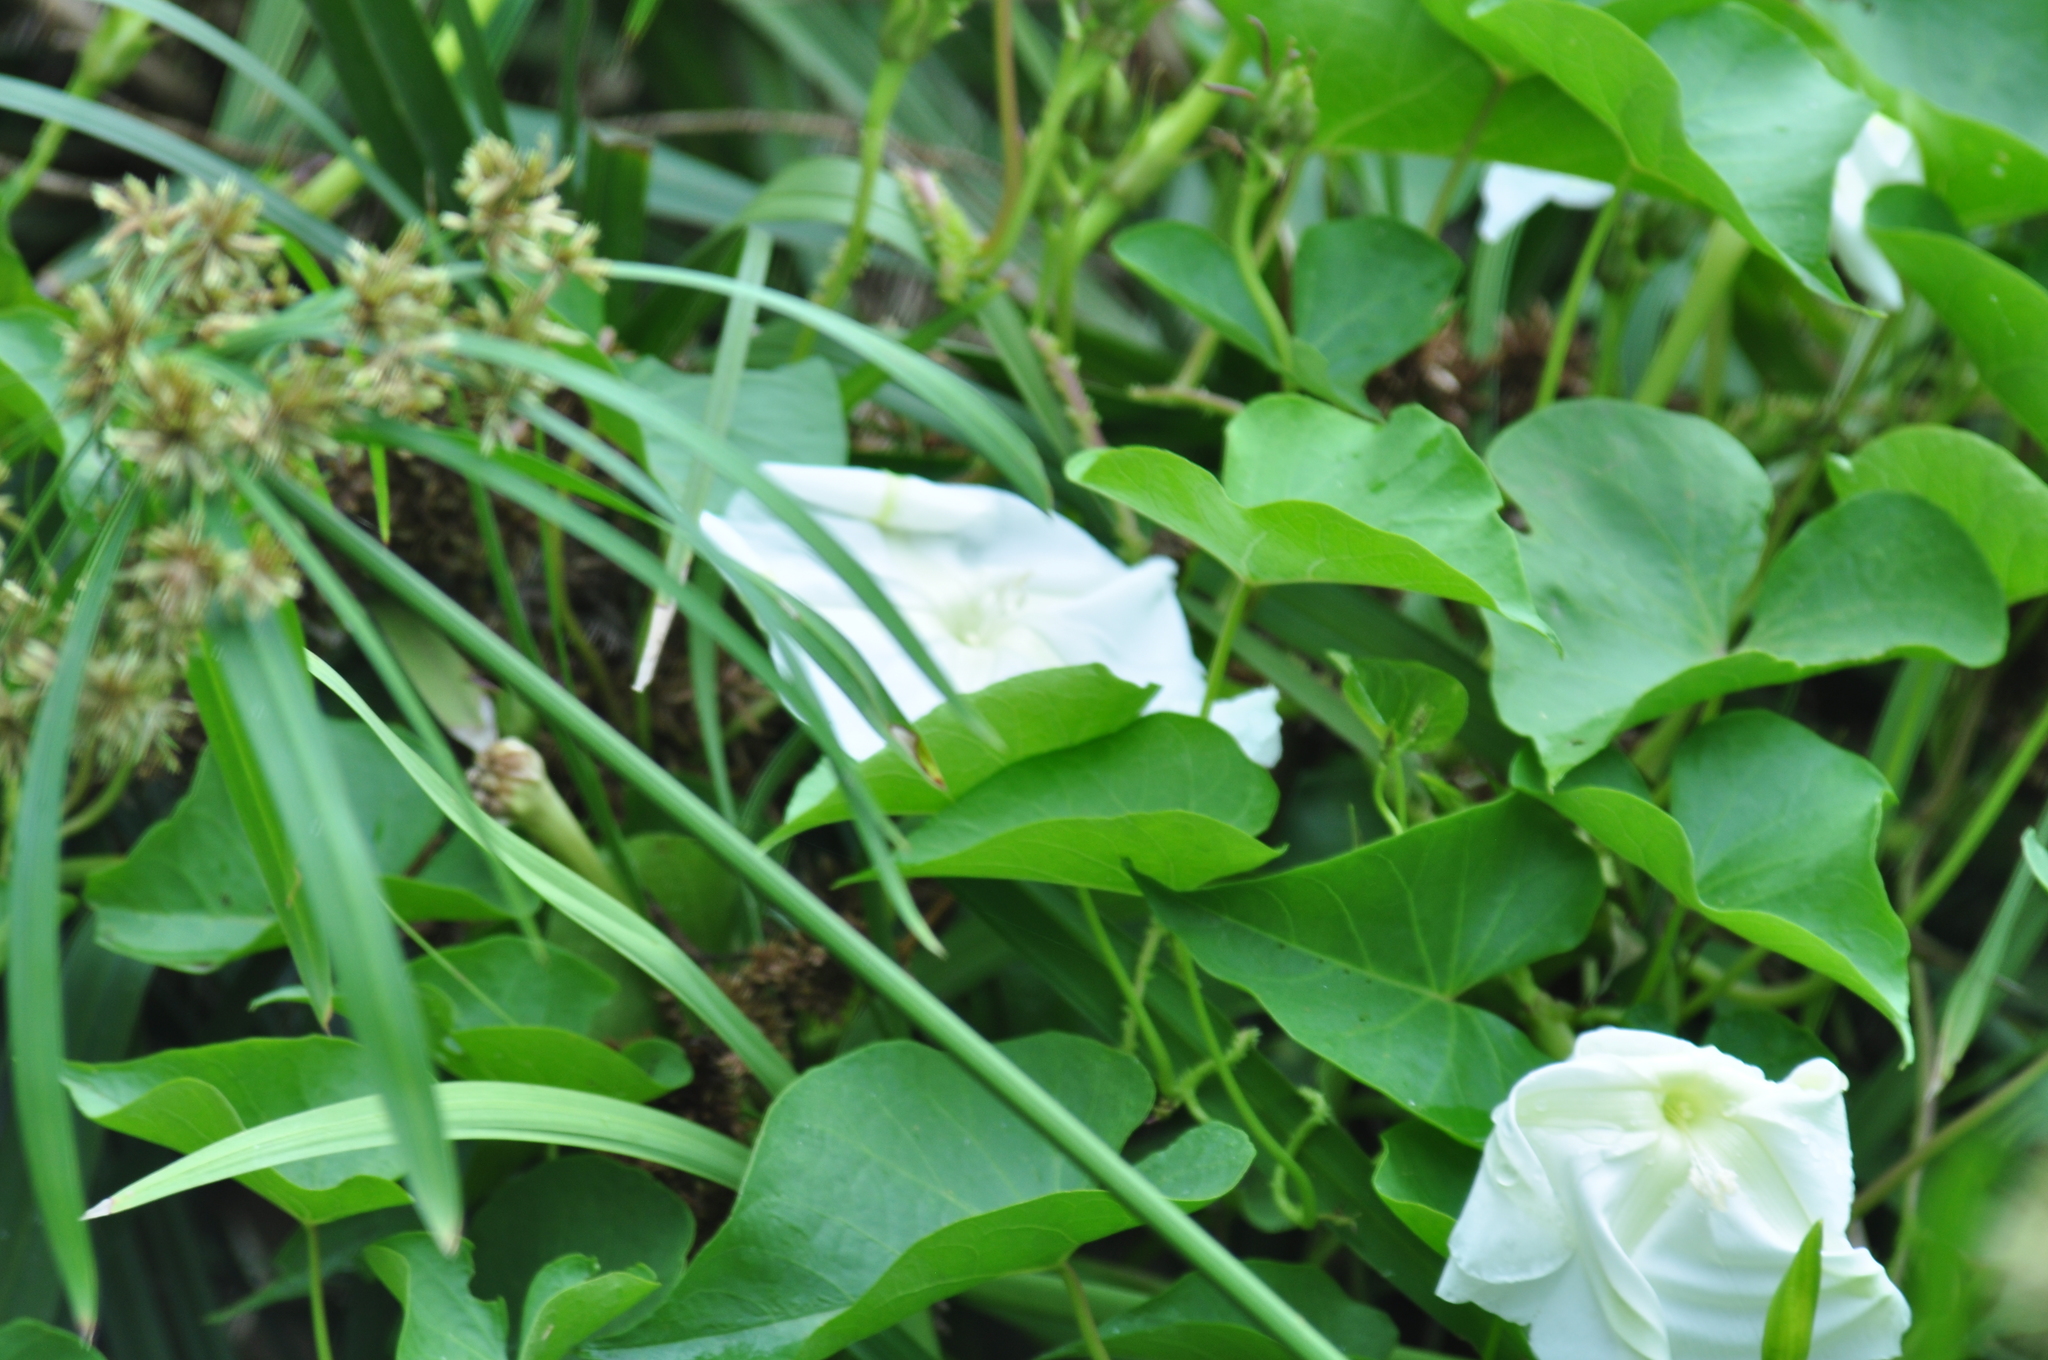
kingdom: Plantae
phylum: Tracheophyta
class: Magnoliopsida
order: Solanales
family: Convolvulaceae
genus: Ipomoea
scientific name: Ipomoea alba
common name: Moonflower
